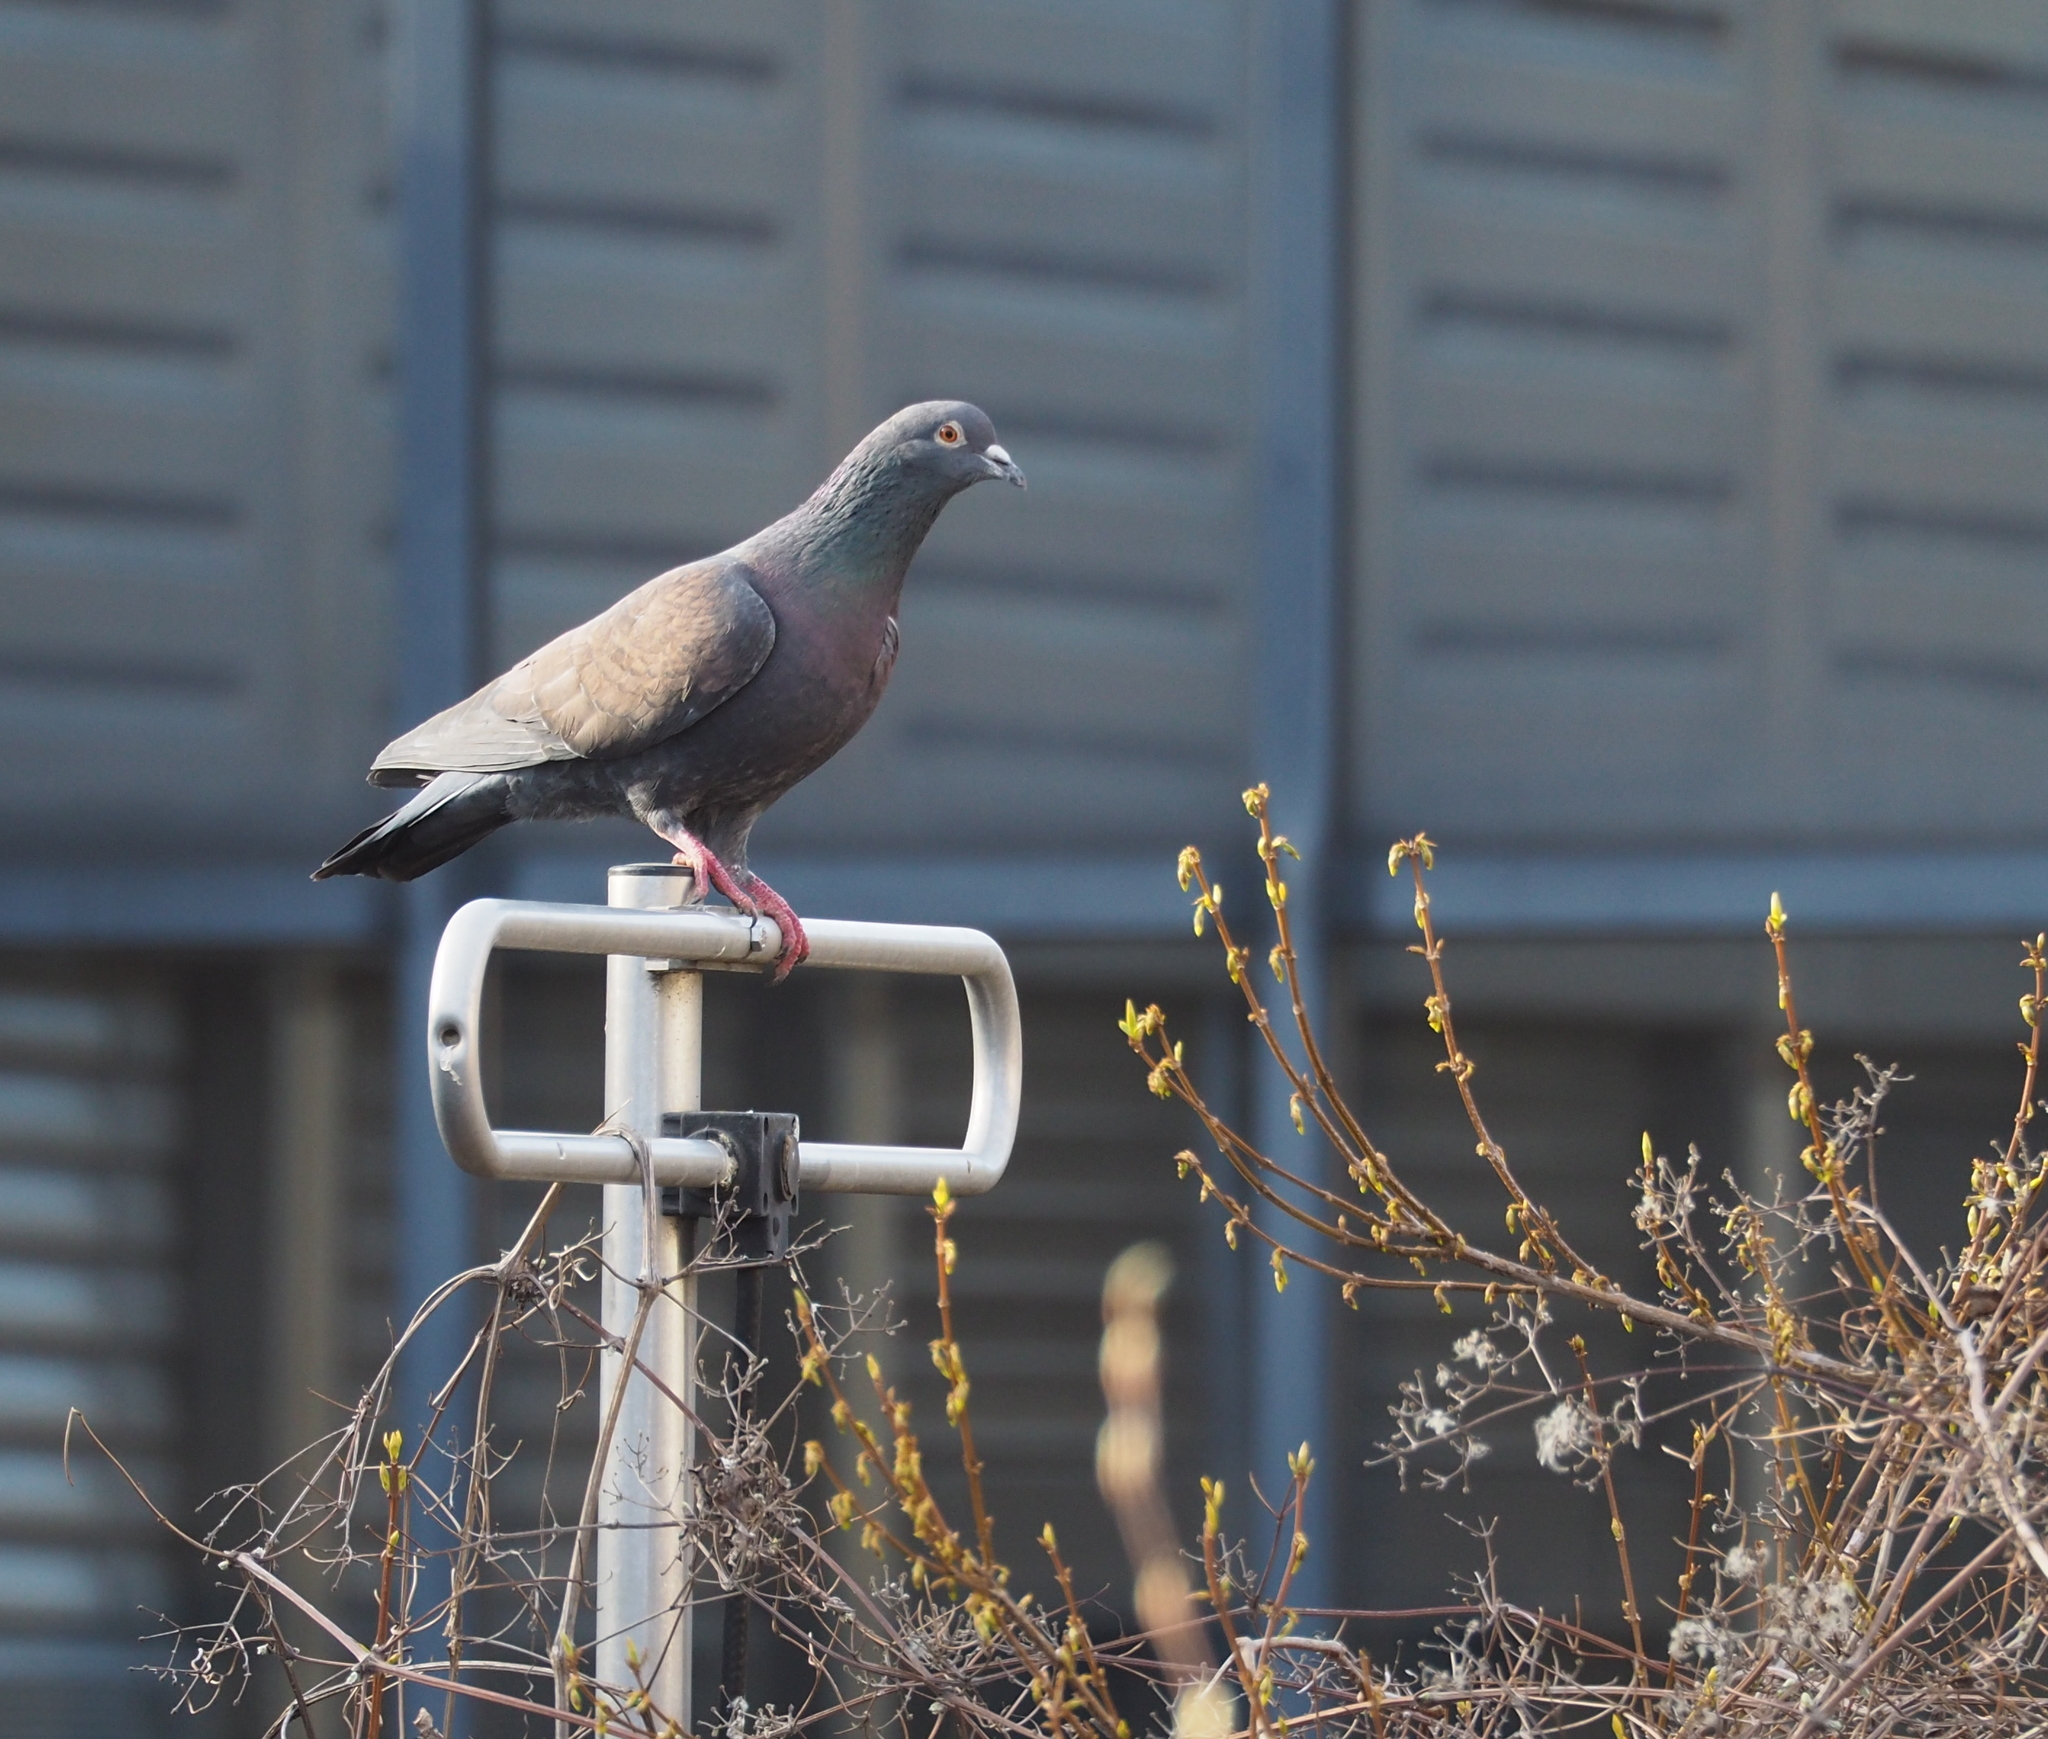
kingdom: Animalia
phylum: Chordata
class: Aves
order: Columbiformes
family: Columbidae
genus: Columba
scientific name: Columba livia
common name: Rock pigeon
